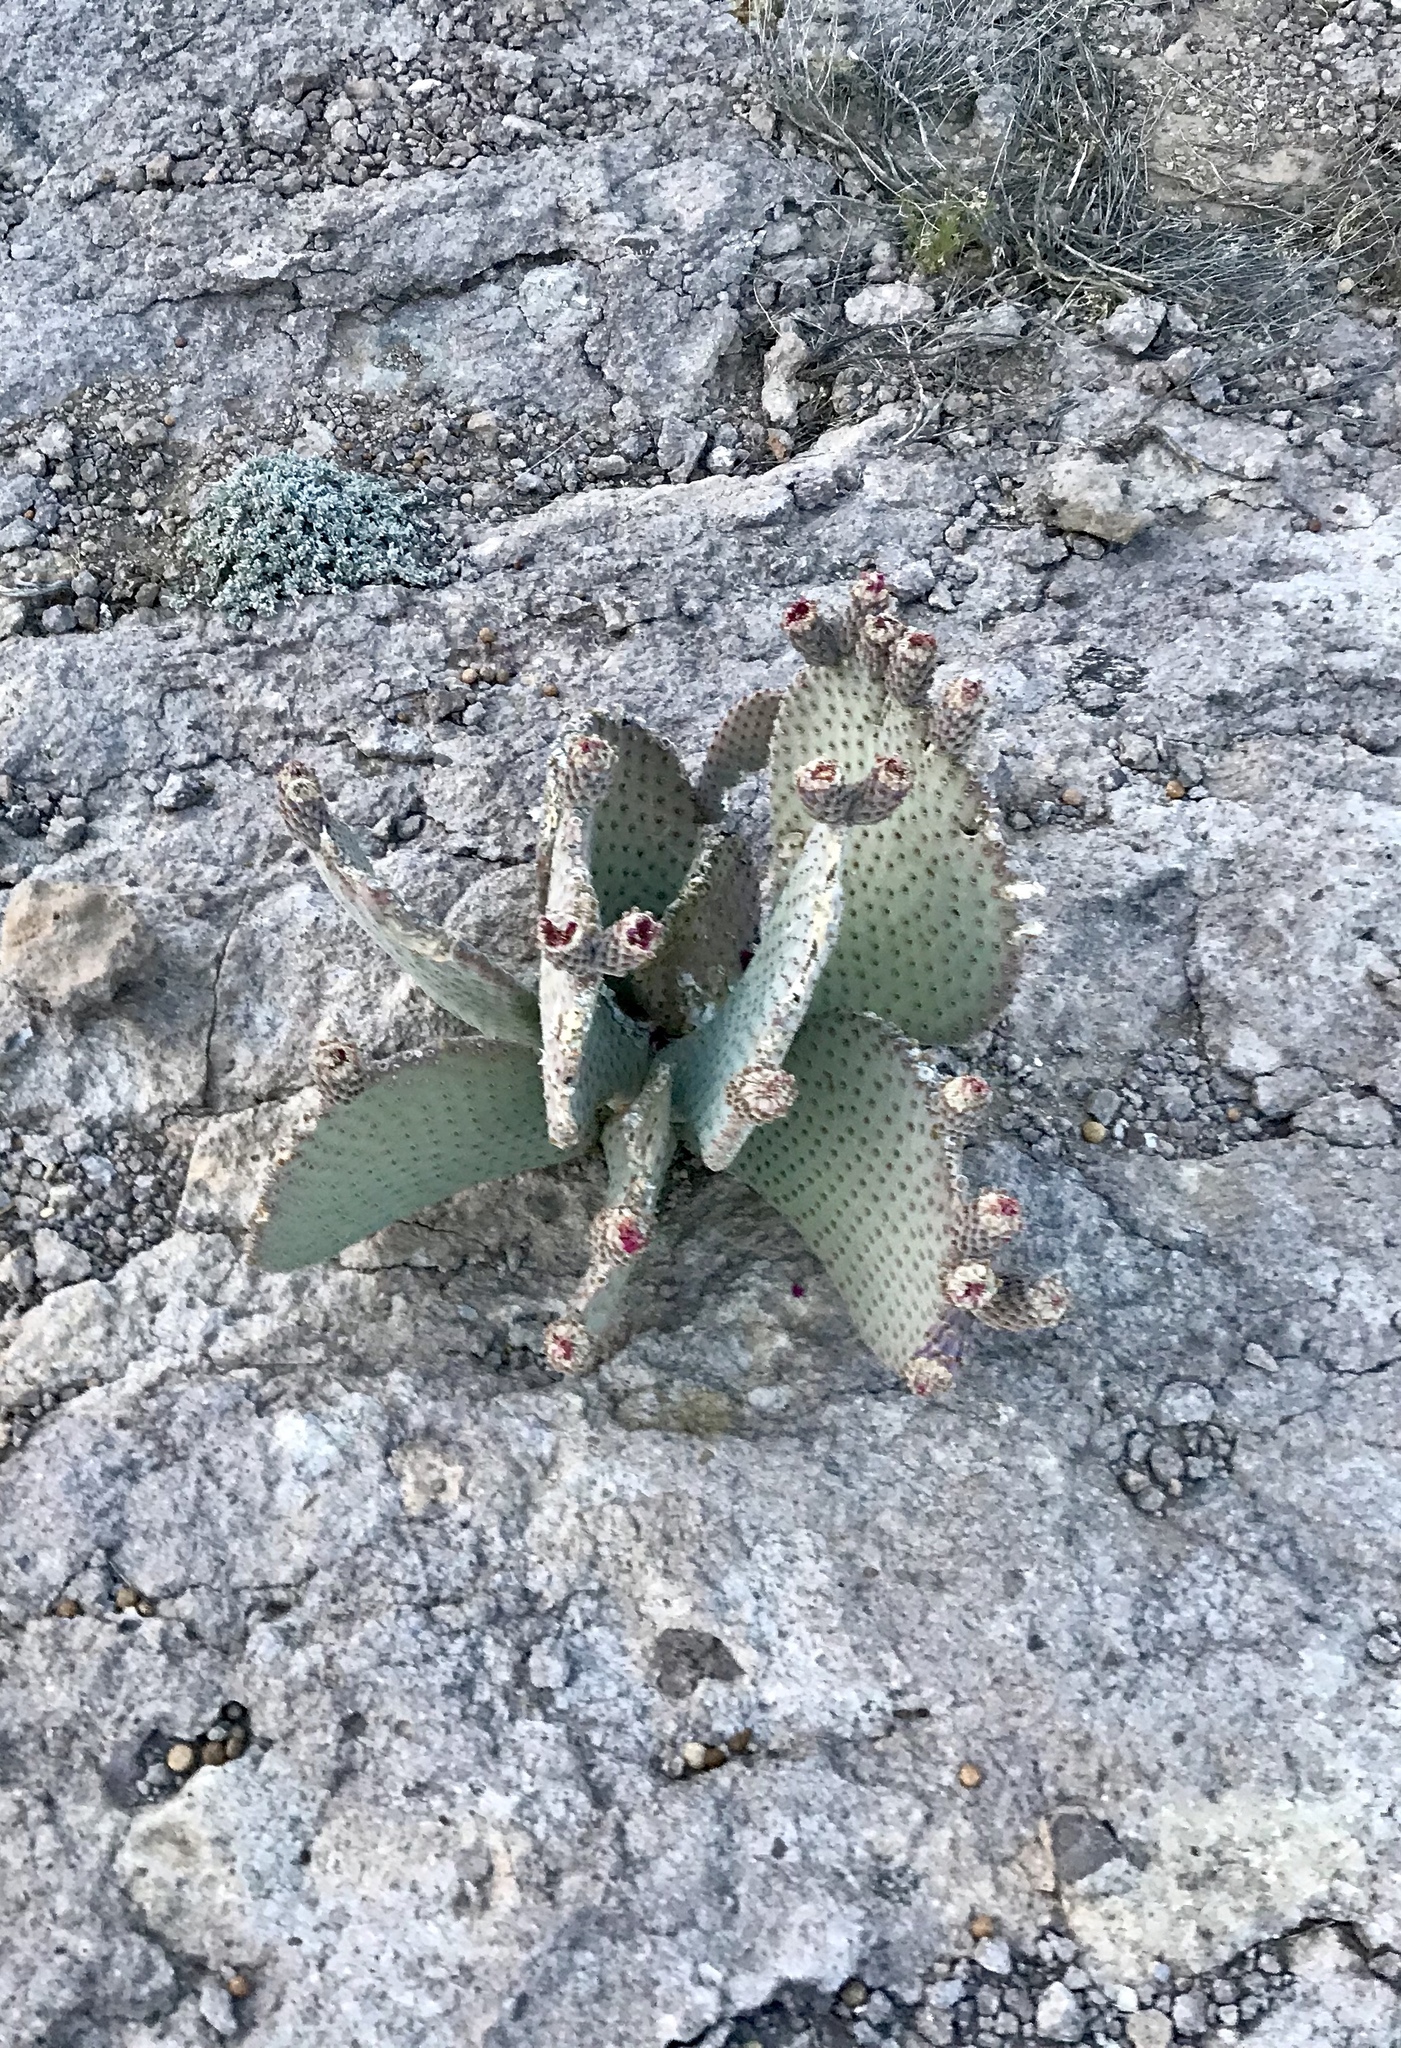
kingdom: Plantae
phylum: Tracheophyta
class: Magnoliopsida
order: Caryophyllales
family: Cactaceae
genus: Opuntia
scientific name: Opuntia basilaris
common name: Beavertail prickly-pear
